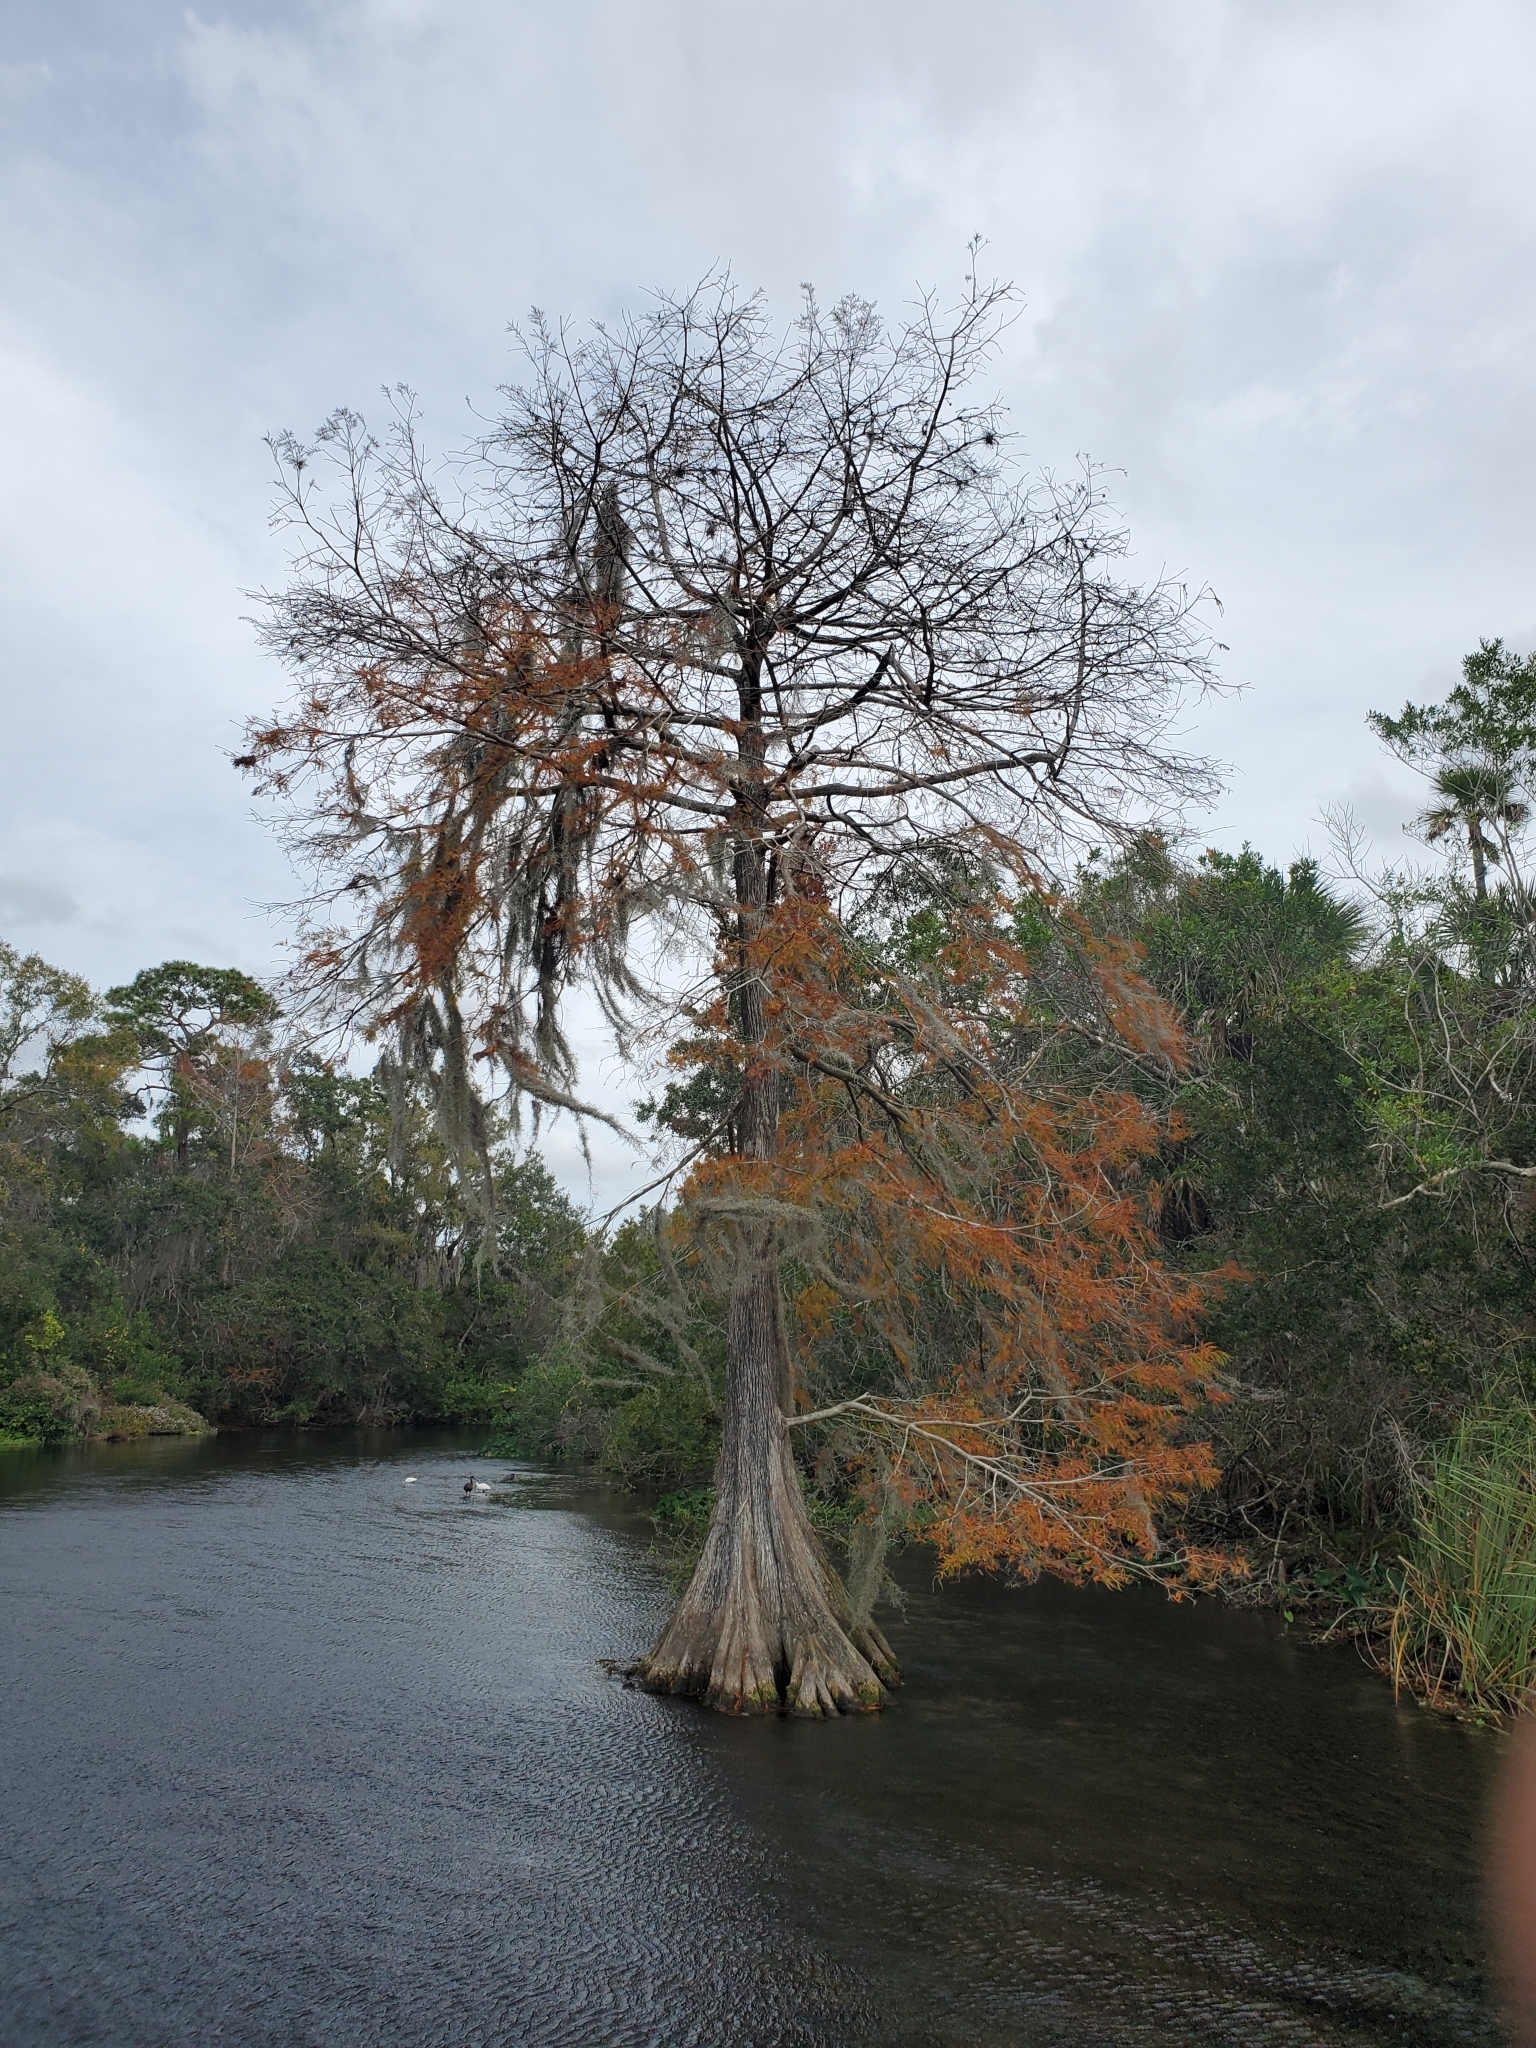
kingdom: Plantae
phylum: Tracheophyta
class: Pinopsida
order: Pinales
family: Cupressaceae
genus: Taxodium
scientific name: Taxodium distichum
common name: Bald cypress
